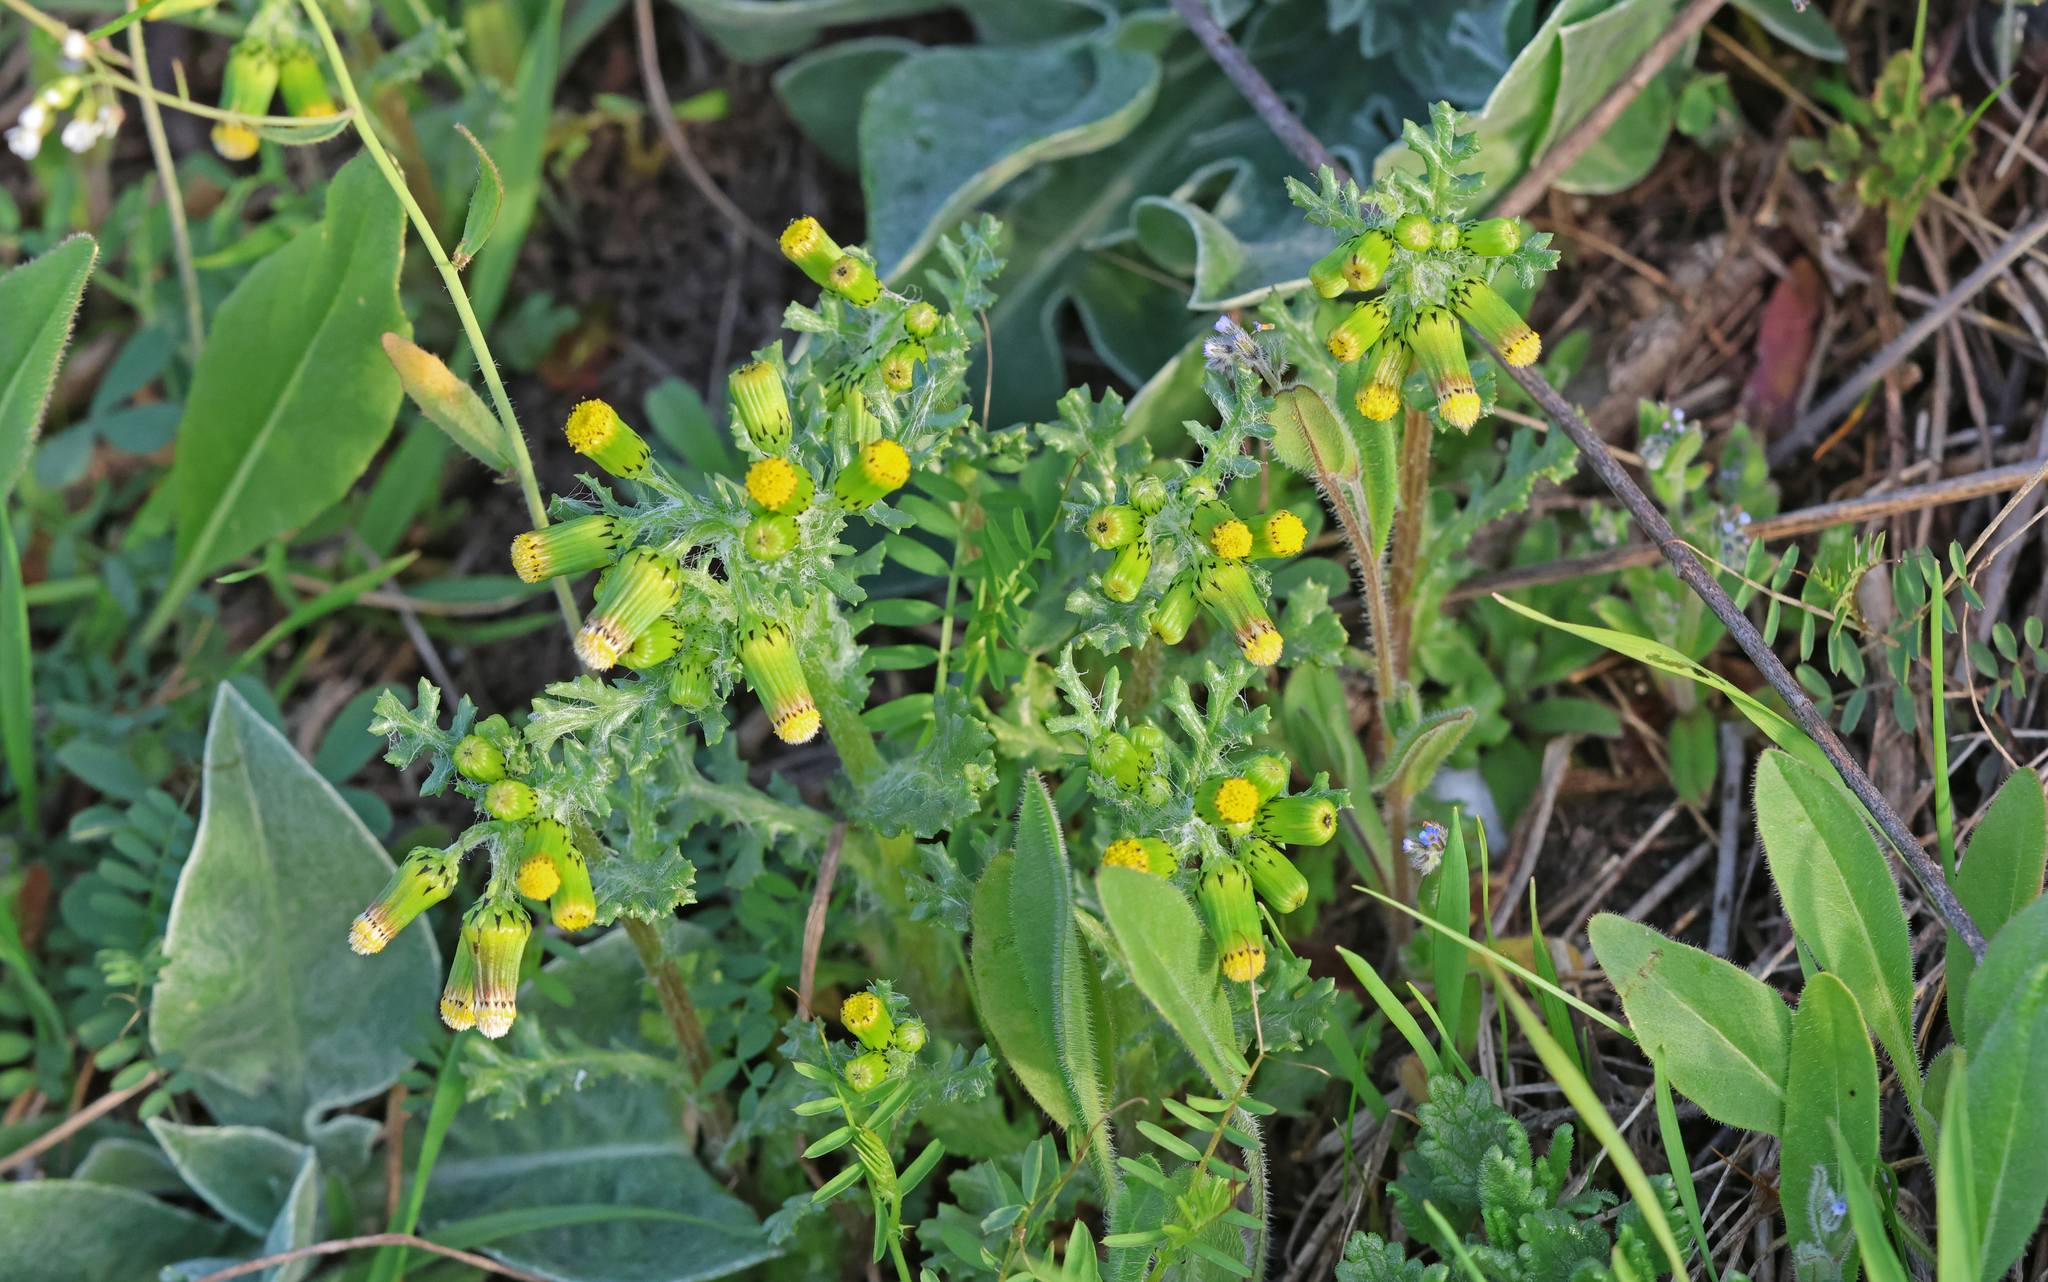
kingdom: Plantae
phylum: Tracheophyta
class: Magnoliopsida
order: Asterales
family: Asteraceae
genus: Senecio
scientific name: Senecio vulgaris
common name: Old-man-in-the-spring
